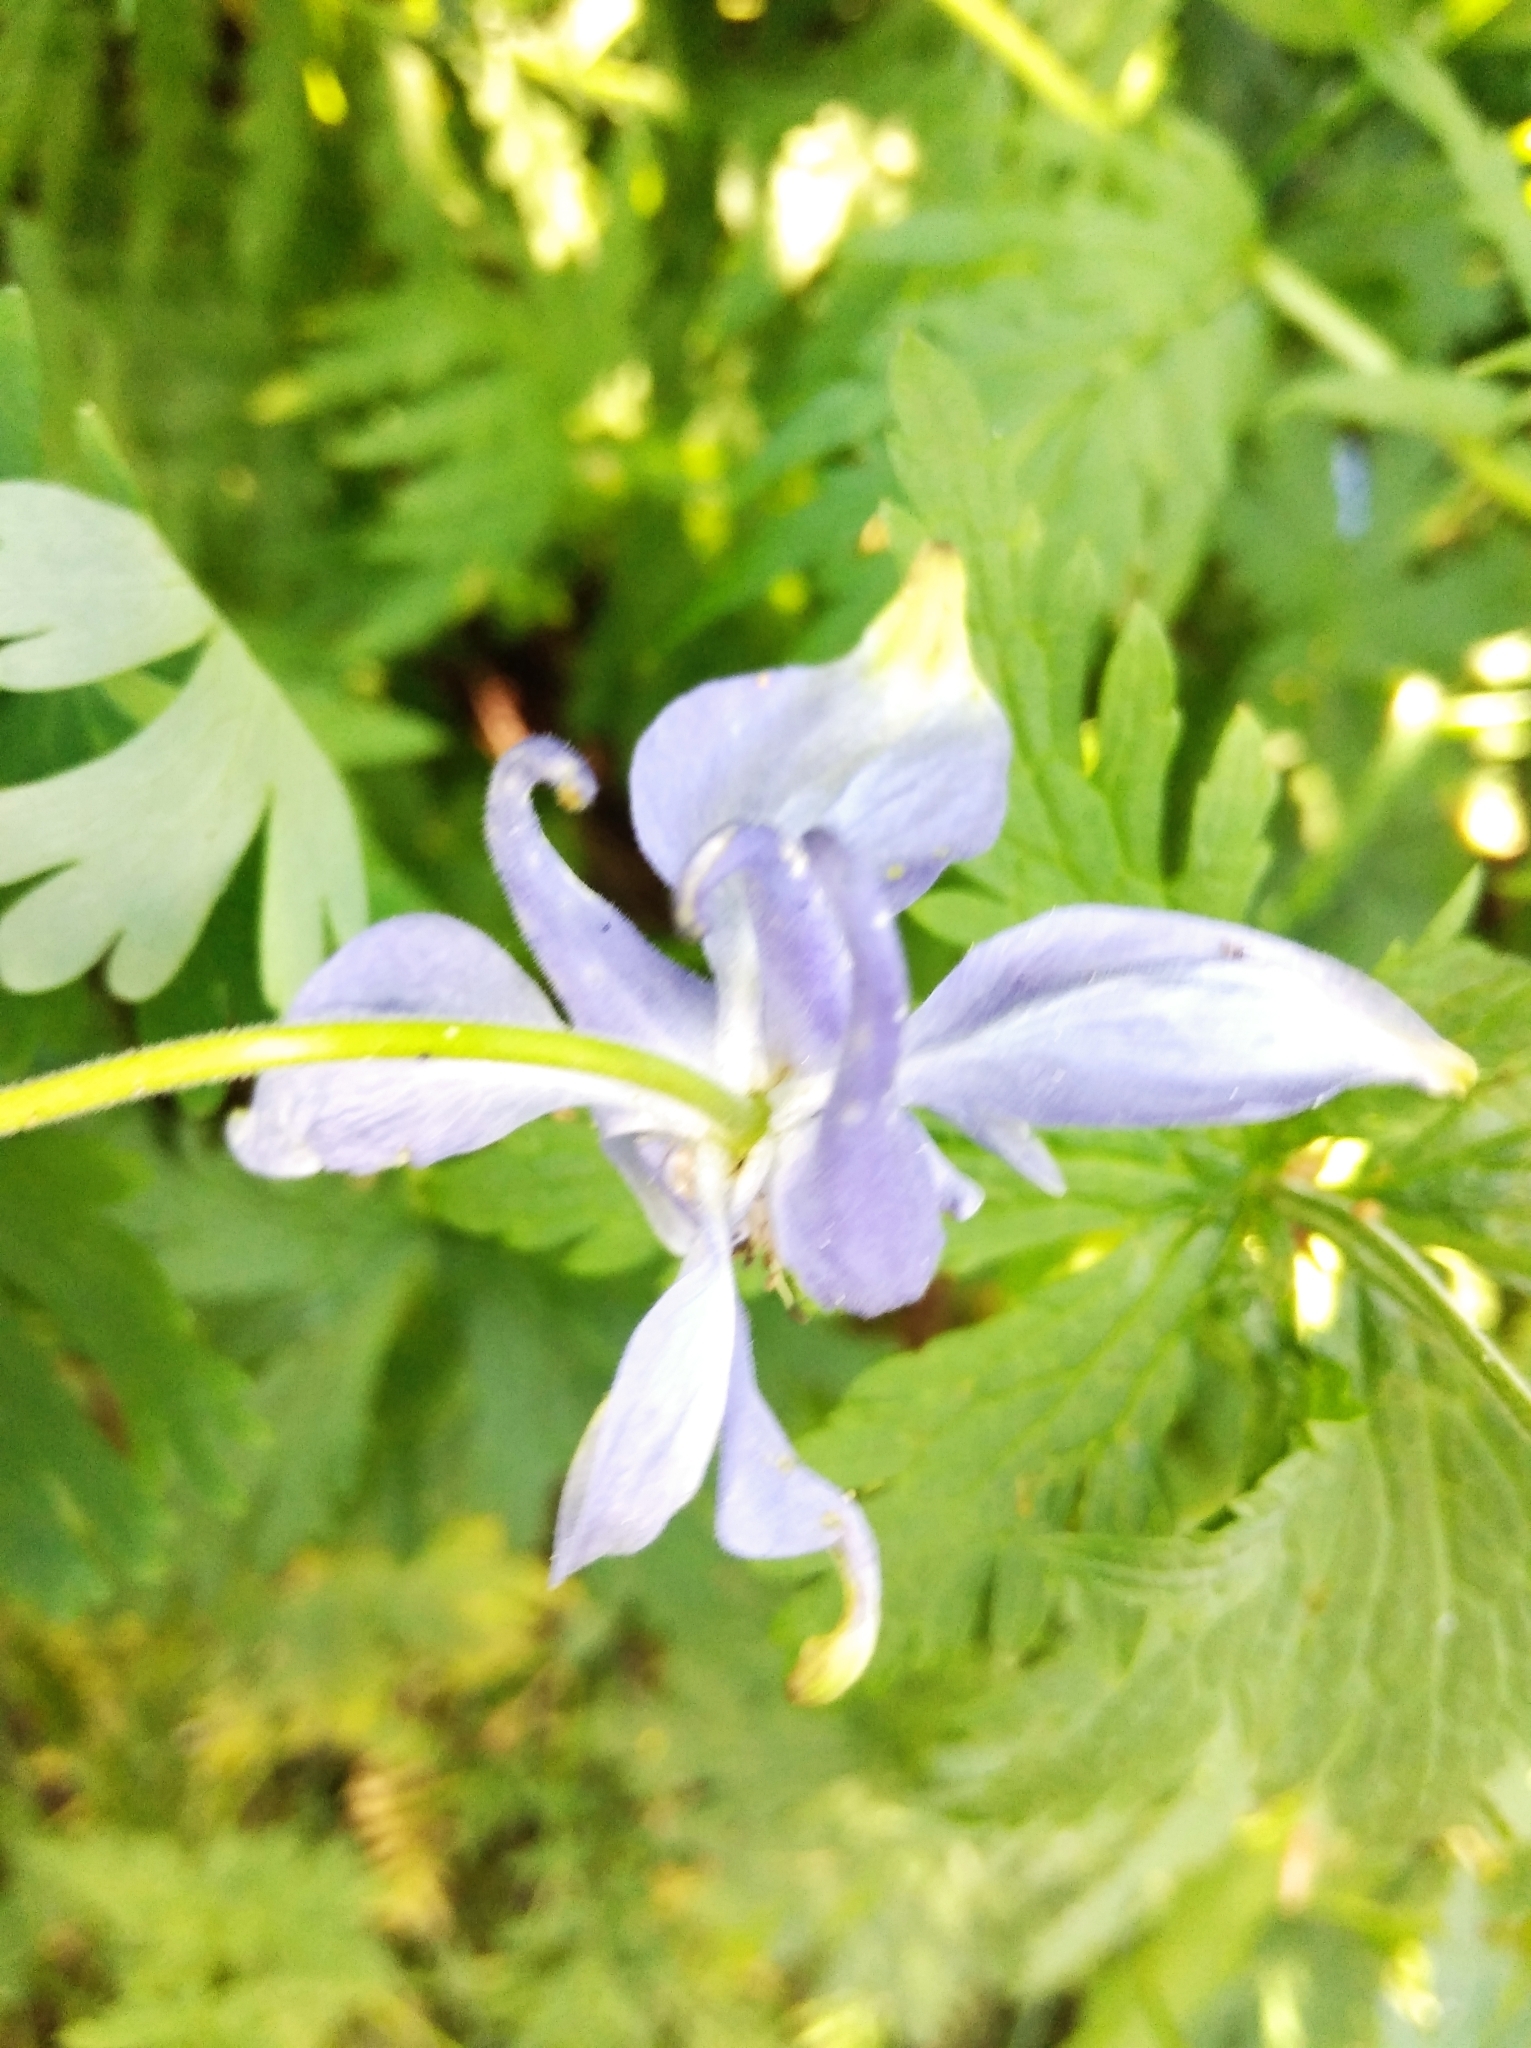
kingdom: Plantae
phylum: Tracheophyta
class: Magnoliopsida
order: Ranunculales
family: Ranunculaceae
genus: Aquilegia
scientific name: Aquilegia vulgaris
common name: Columbine
